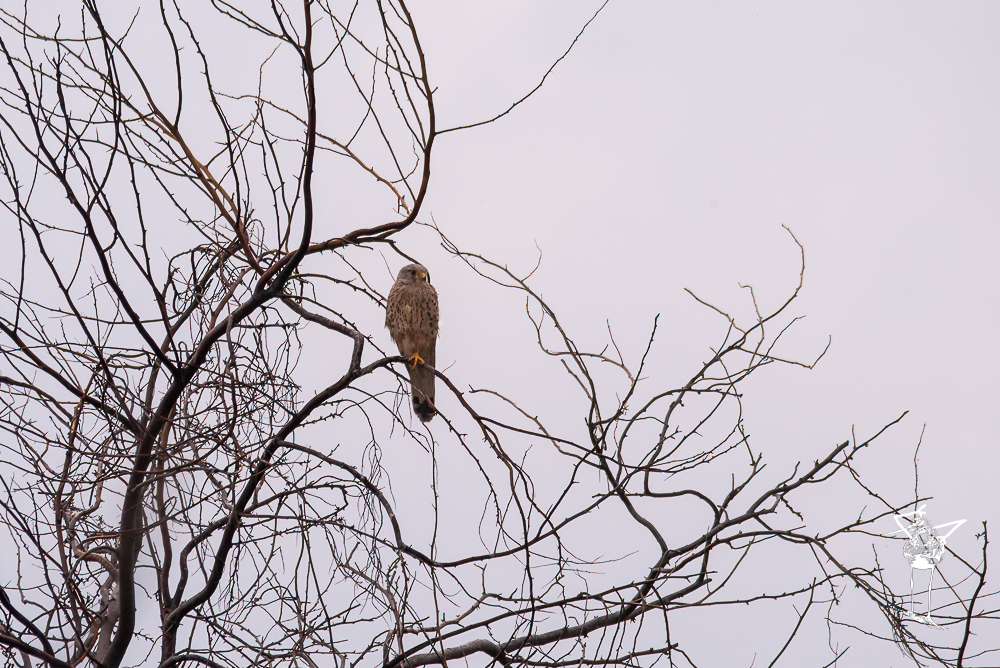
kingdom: Animalia
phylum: Chordata
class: Aves
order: Falconiformes
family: Falconidae
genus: Falco
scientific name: Falco tinnunculus
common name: Common kestrel
